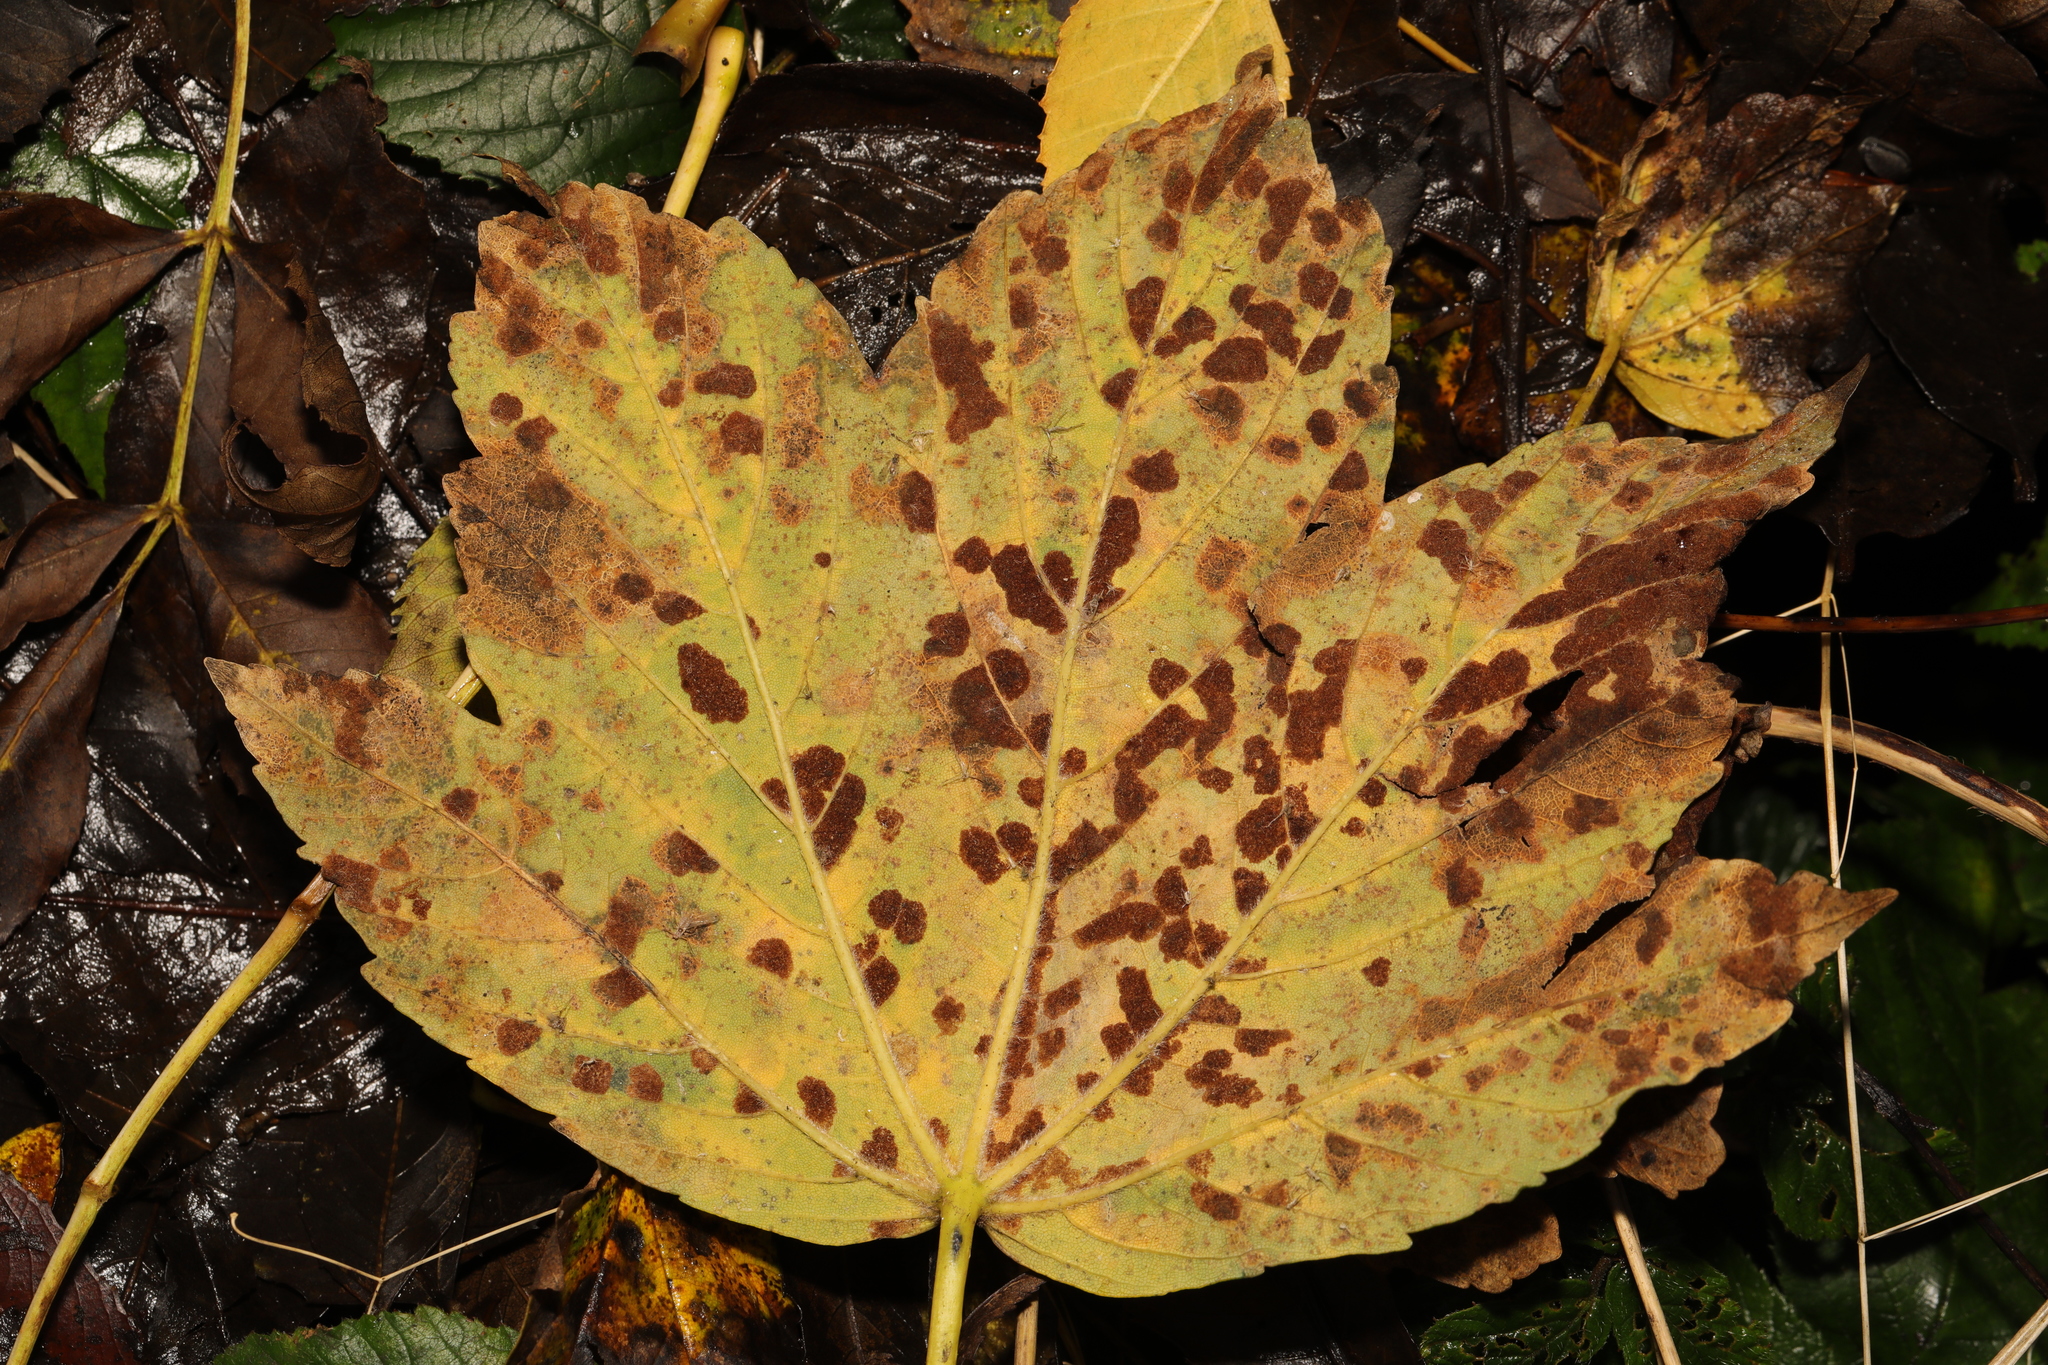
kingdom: Animalia
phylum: Arthropoda
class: Arachnida
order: Trombidiformes
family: Eriophyidae
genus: Aceria
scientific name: Aceria pseudoplatani
